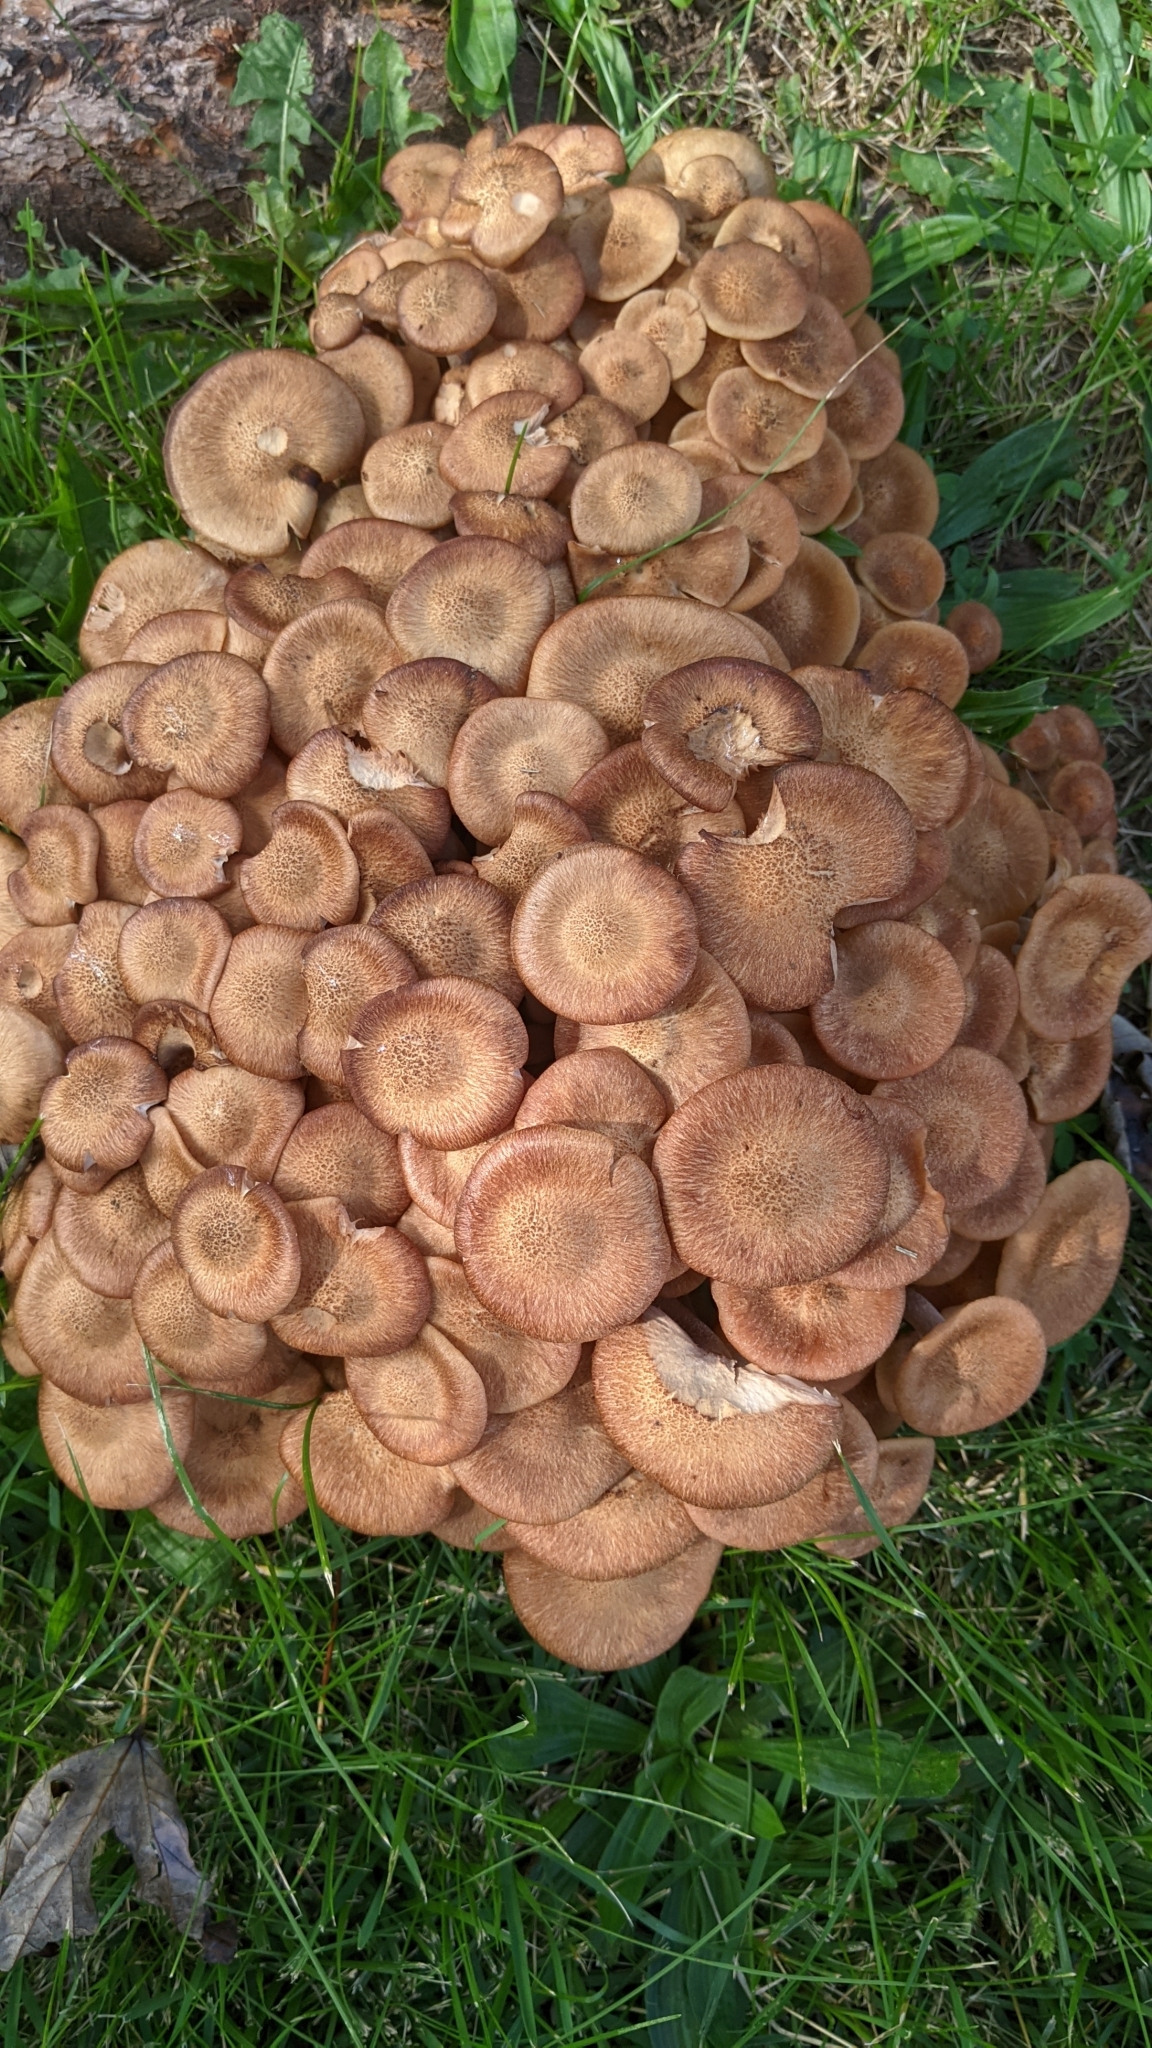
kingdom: Fungi
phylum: Basidiomycota
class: Agaricomycetes
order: Agaricales
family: Physalacriaceae
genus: Desarmillaria
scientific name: Desarmillaria caespitosa
